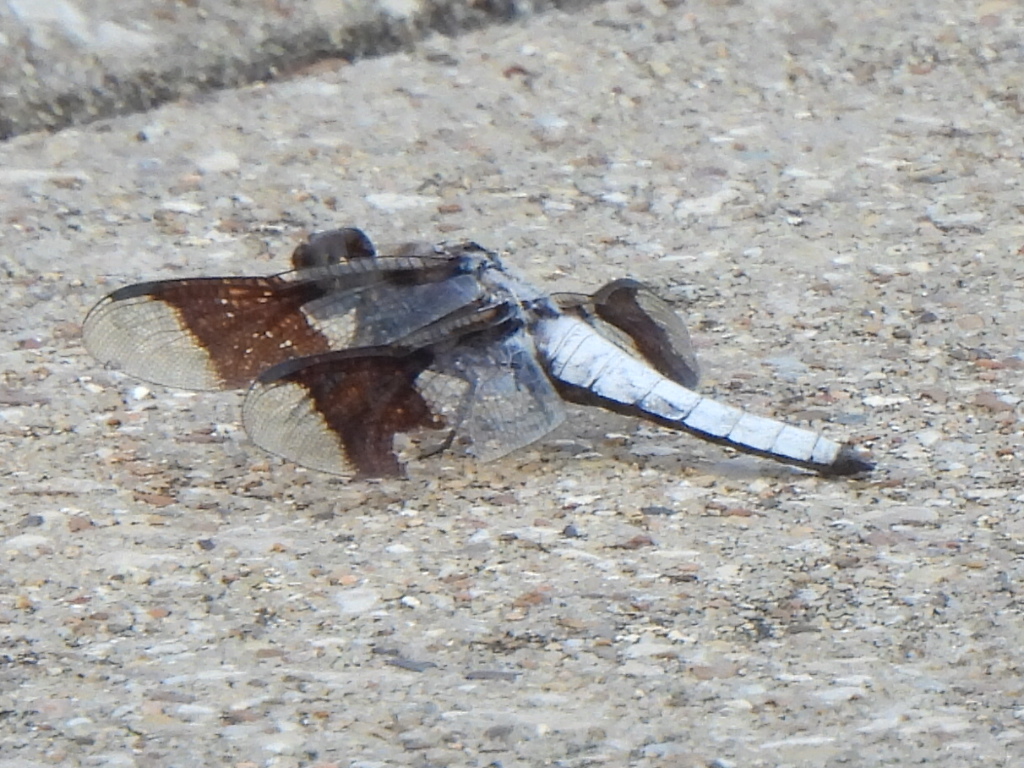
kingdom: Animalia
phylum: Arthropoda
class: Insecta
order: Odonata
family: Libellulidae
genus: Plathemis
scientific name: Plathemis lydia
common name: Common whitetail
